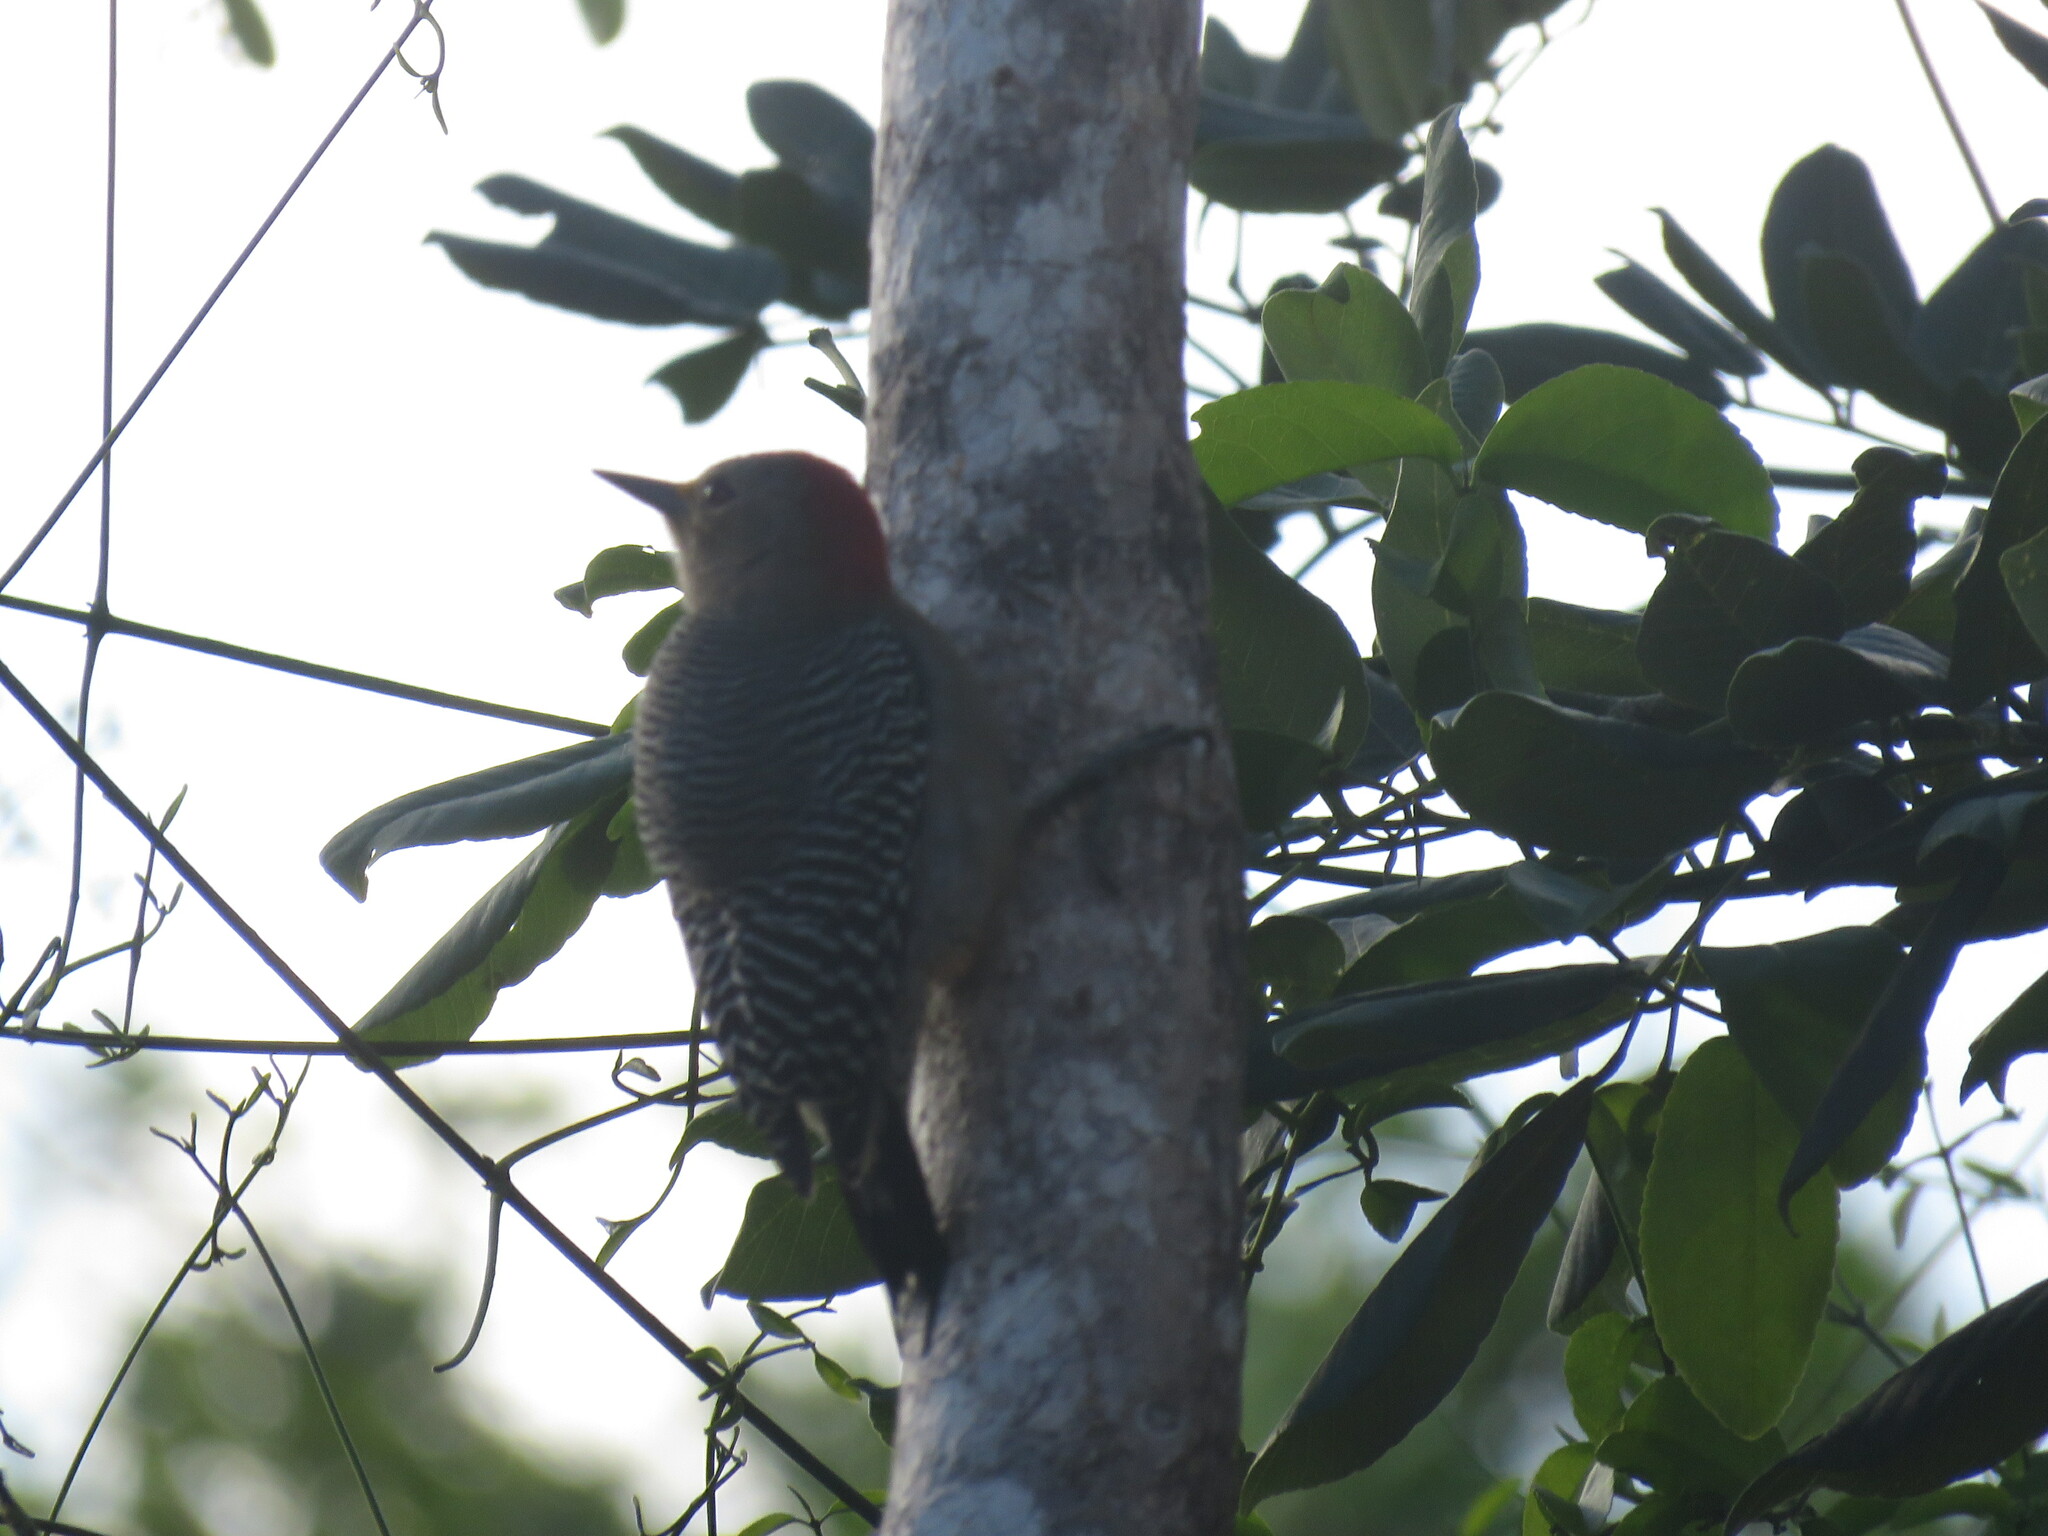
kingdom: Animalia
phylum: Chordata
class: Aves
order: Piciformes
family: Picidae
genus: Melanerpes
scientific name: Melanerpes pygmaeus
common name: Yucatan woodpecker
